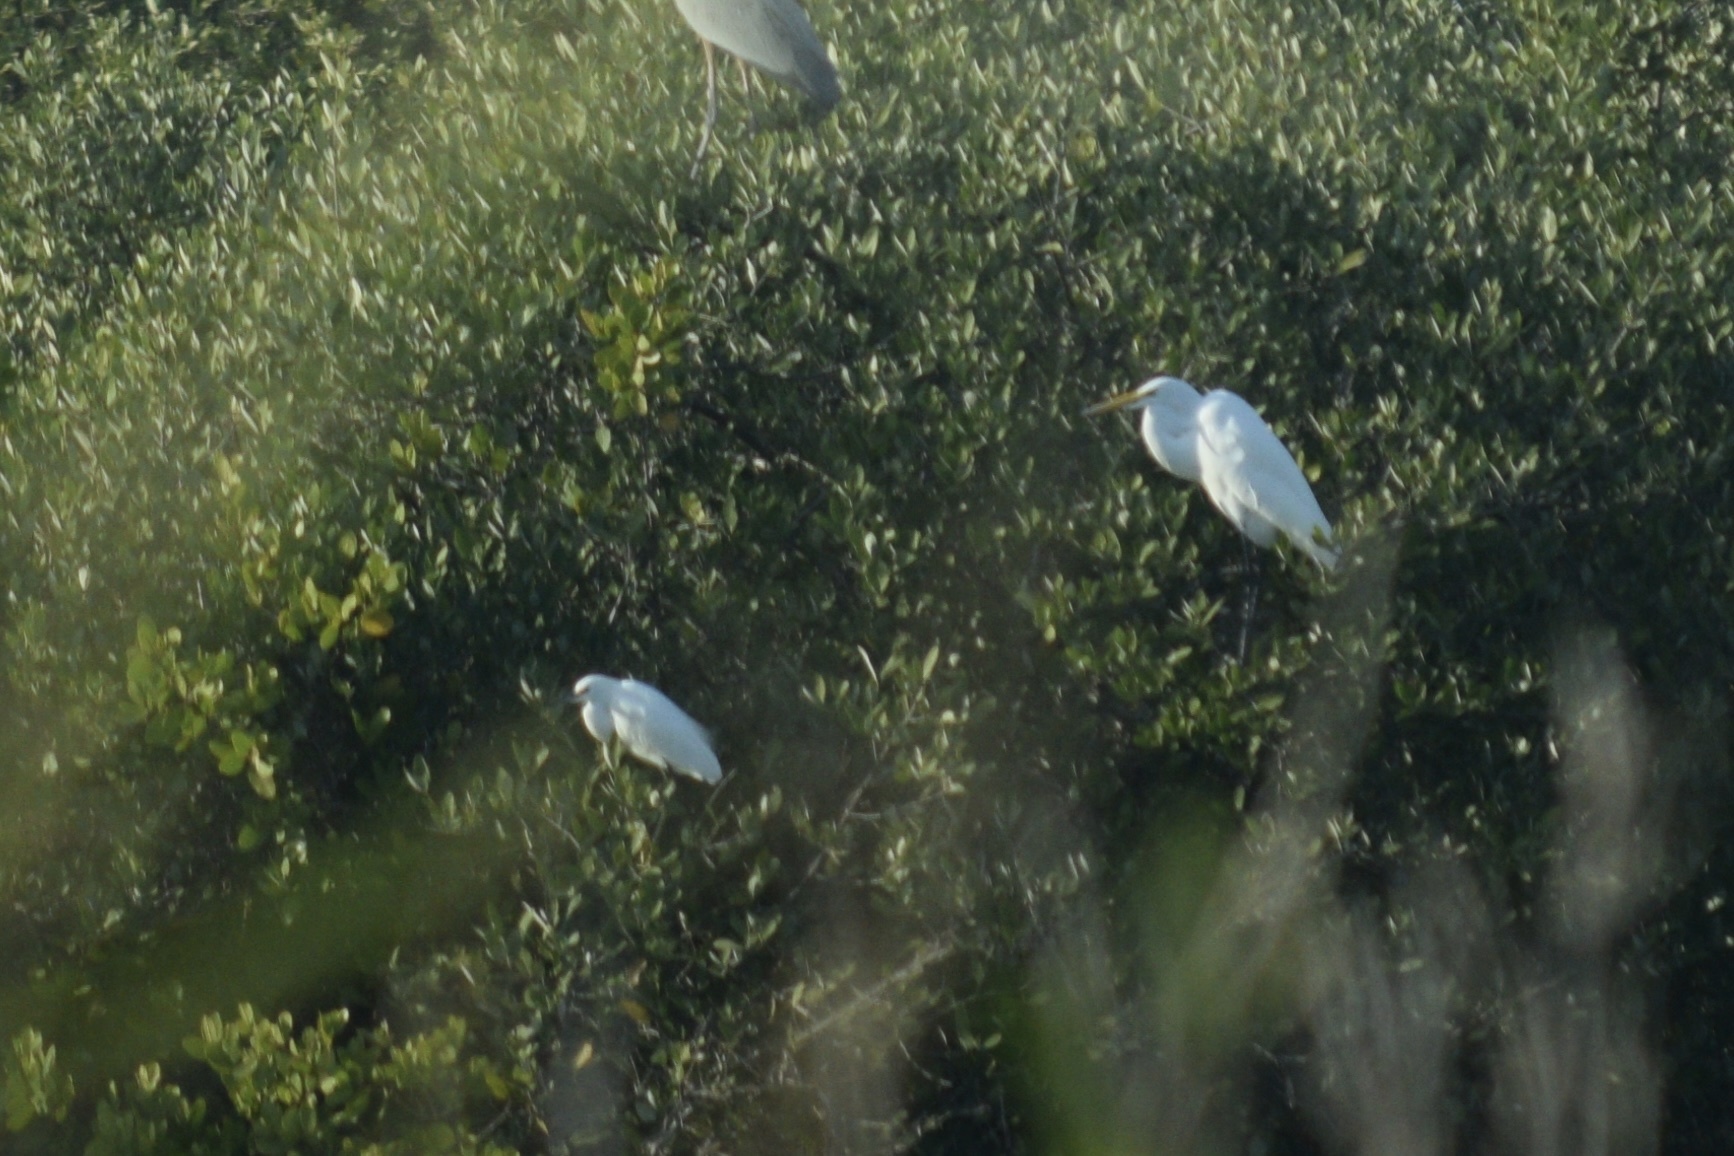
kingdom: Animalia
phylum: Chordata
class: Aves
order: Pelecaniformes
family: Ardeidae
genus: Ardea
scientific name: Ardea alba
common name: Great egret
